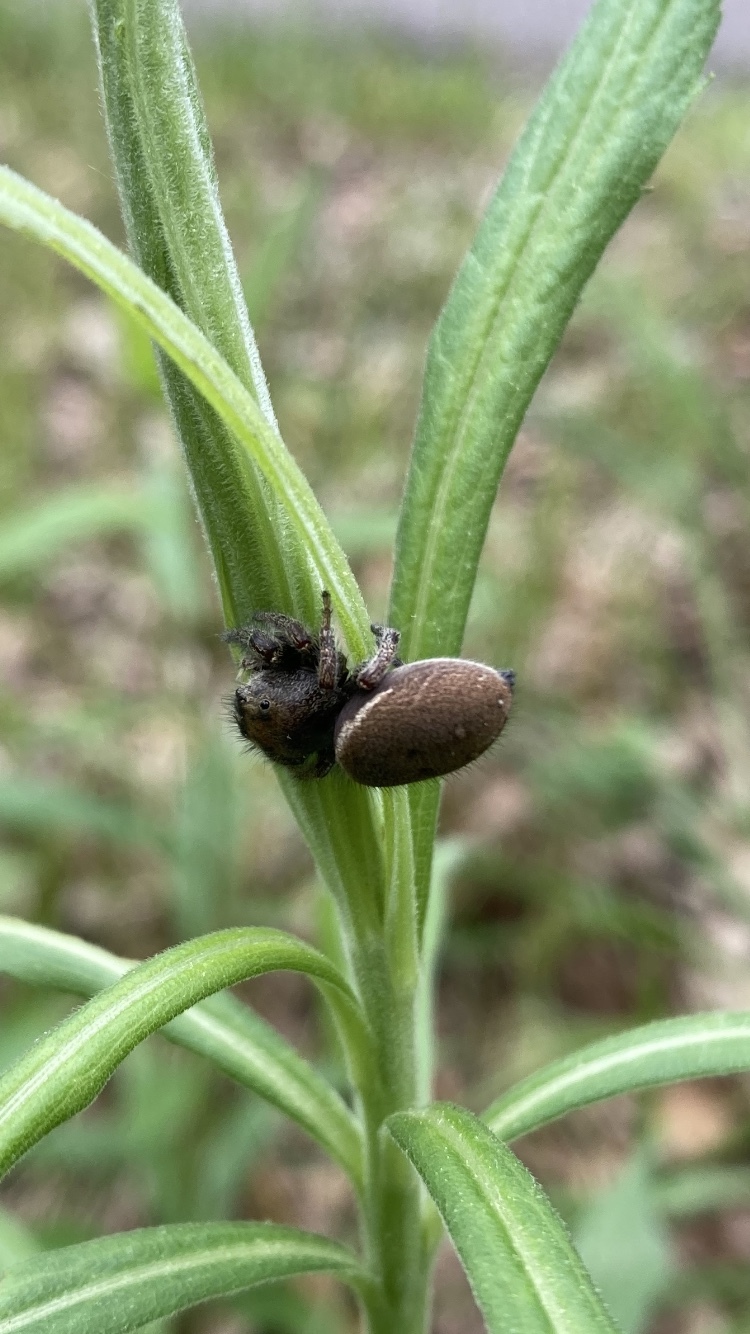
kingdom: Animalia
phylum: Arthropoda
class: Arachnida
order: Araneae
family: Salticidae
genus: Phidippus
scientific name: Phidippus whitmani
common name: Whitman's jumping spider
